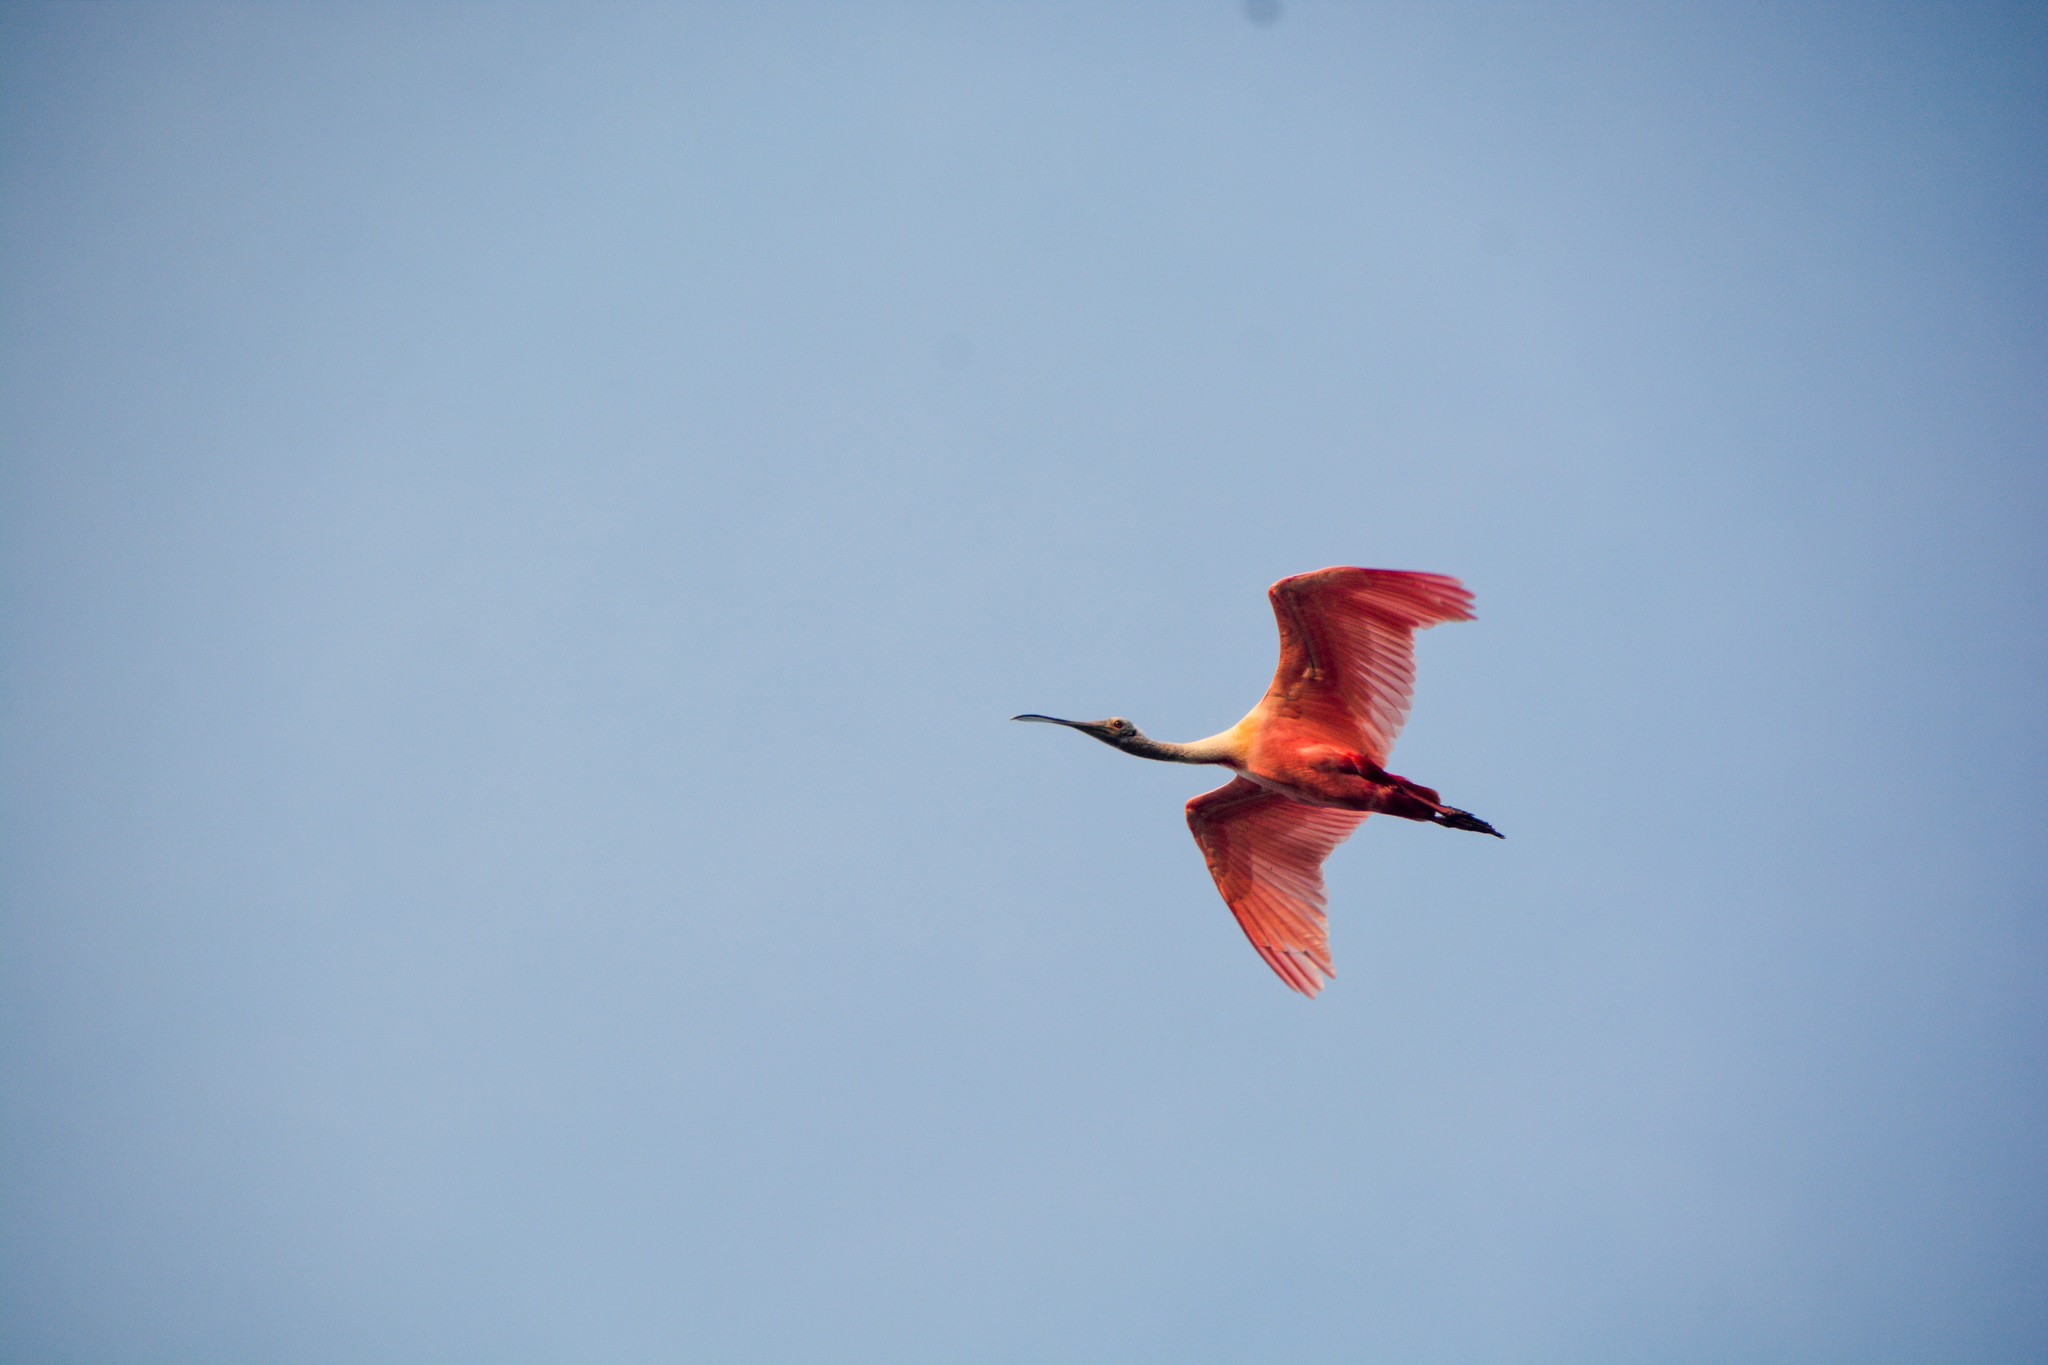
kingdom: Animalia
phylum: Chordata
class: Aves
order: Pelecaniformes
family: Threskiornithidae
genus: Platalea
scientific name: Platalea ajaja
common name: Roseate spoonbill
